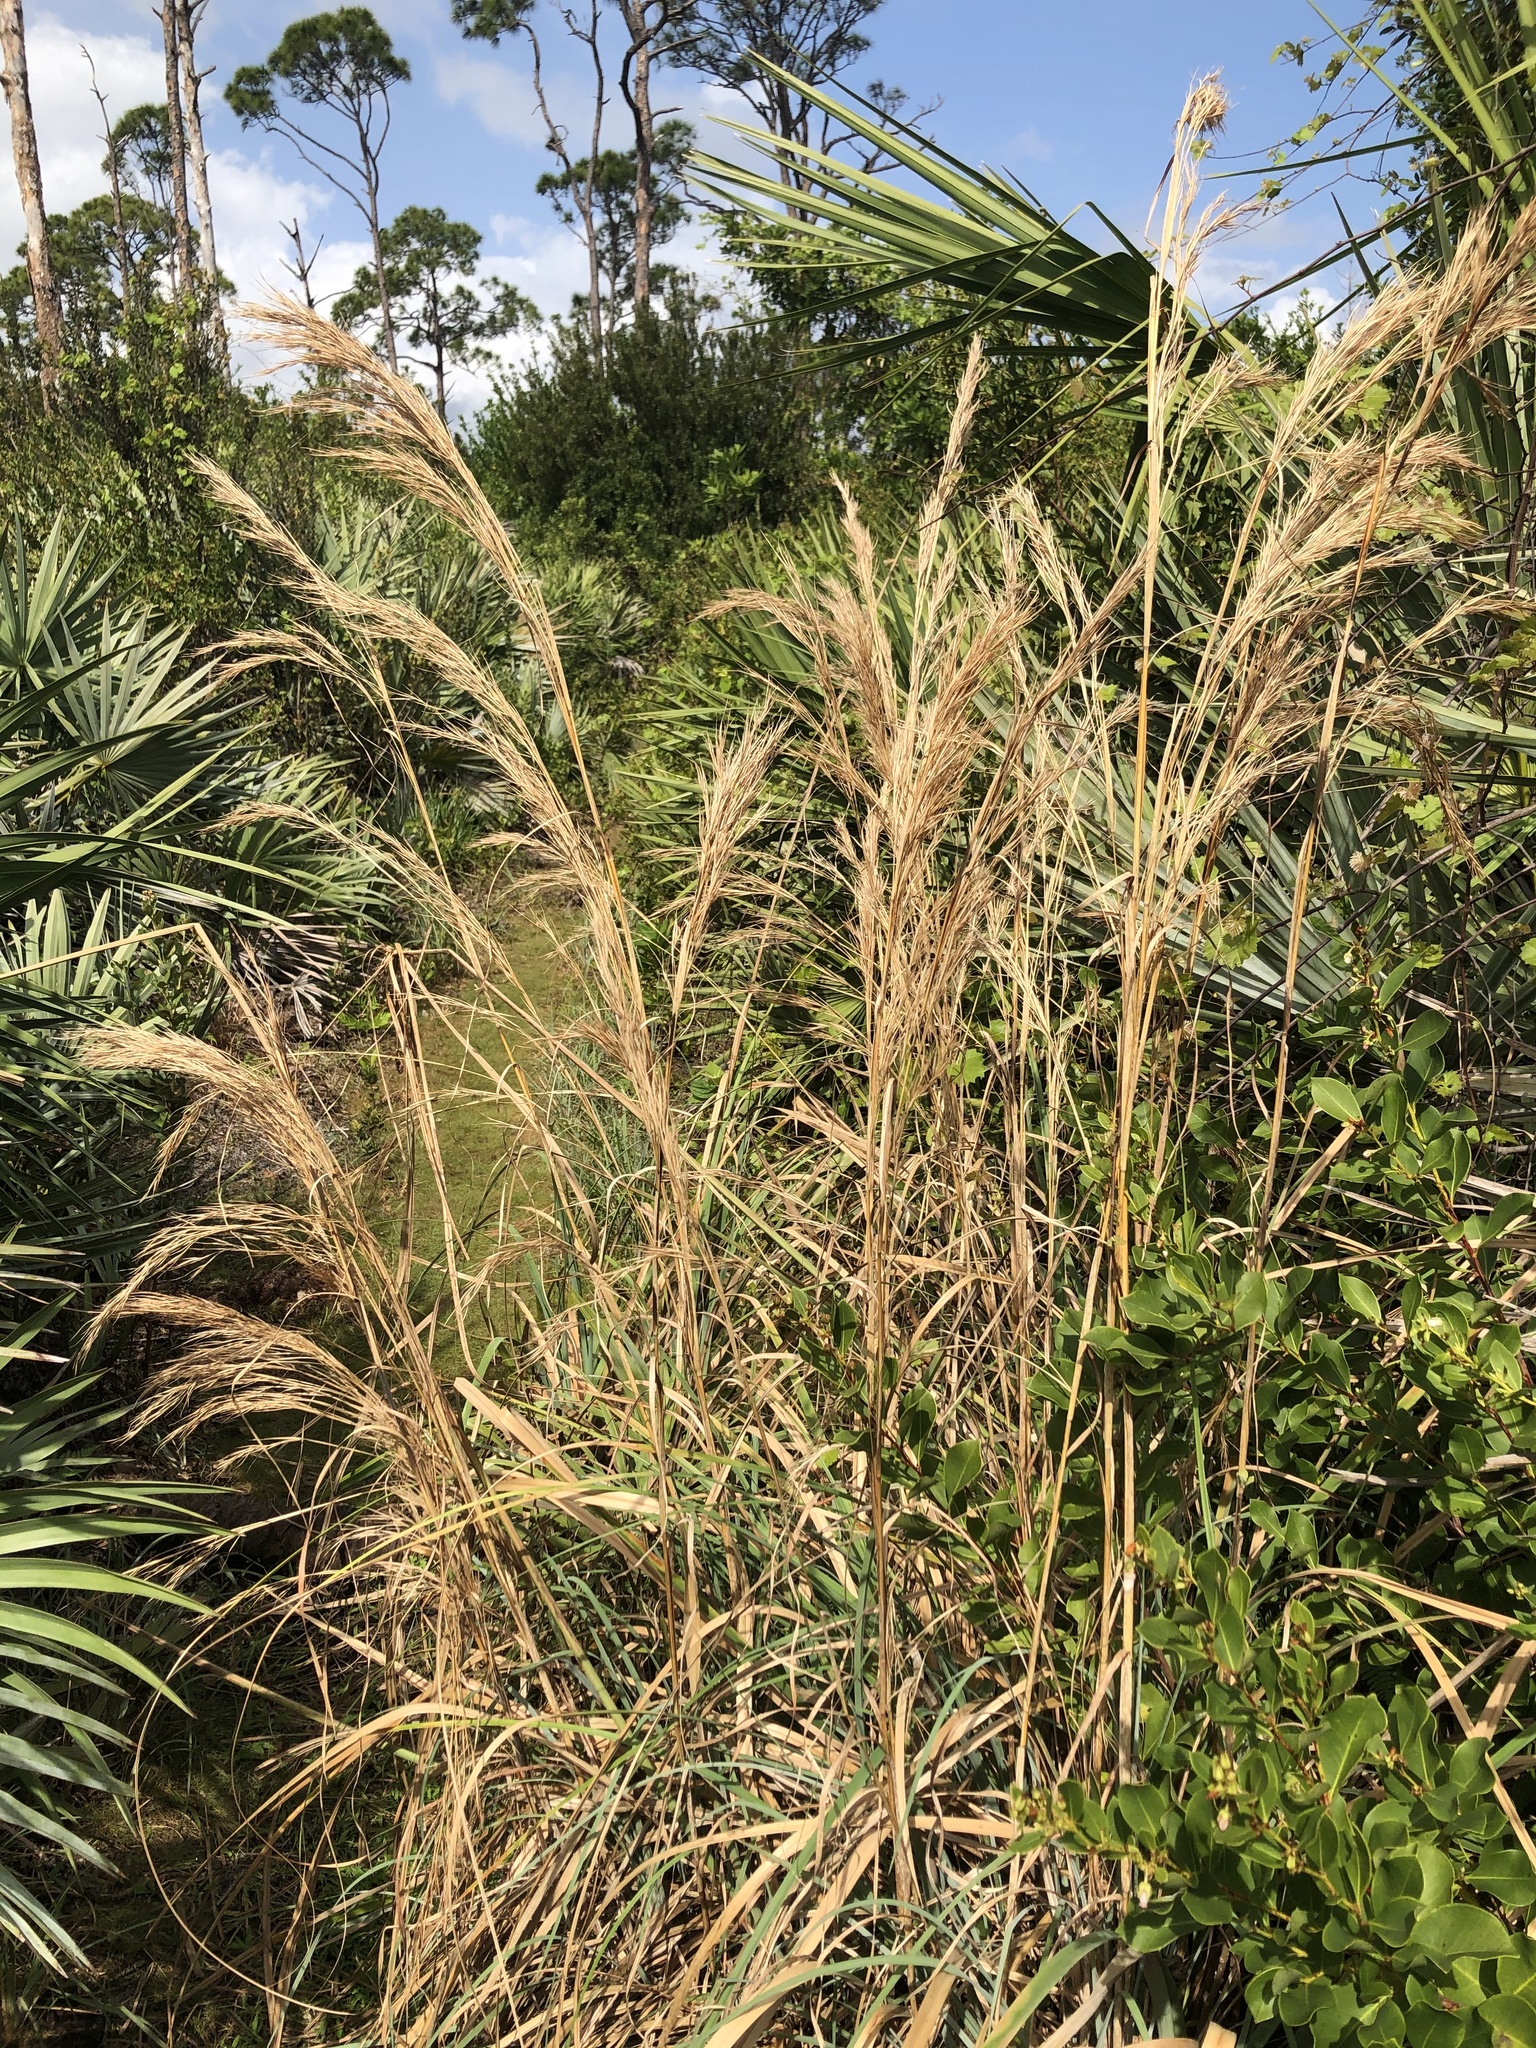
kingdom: Plantae
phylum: Tracheophyta
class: Liliopsida
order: Poales
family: Poaceae
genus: Andropogon
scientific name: Andropogon tenuispatheus
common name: Bushy bluestem
